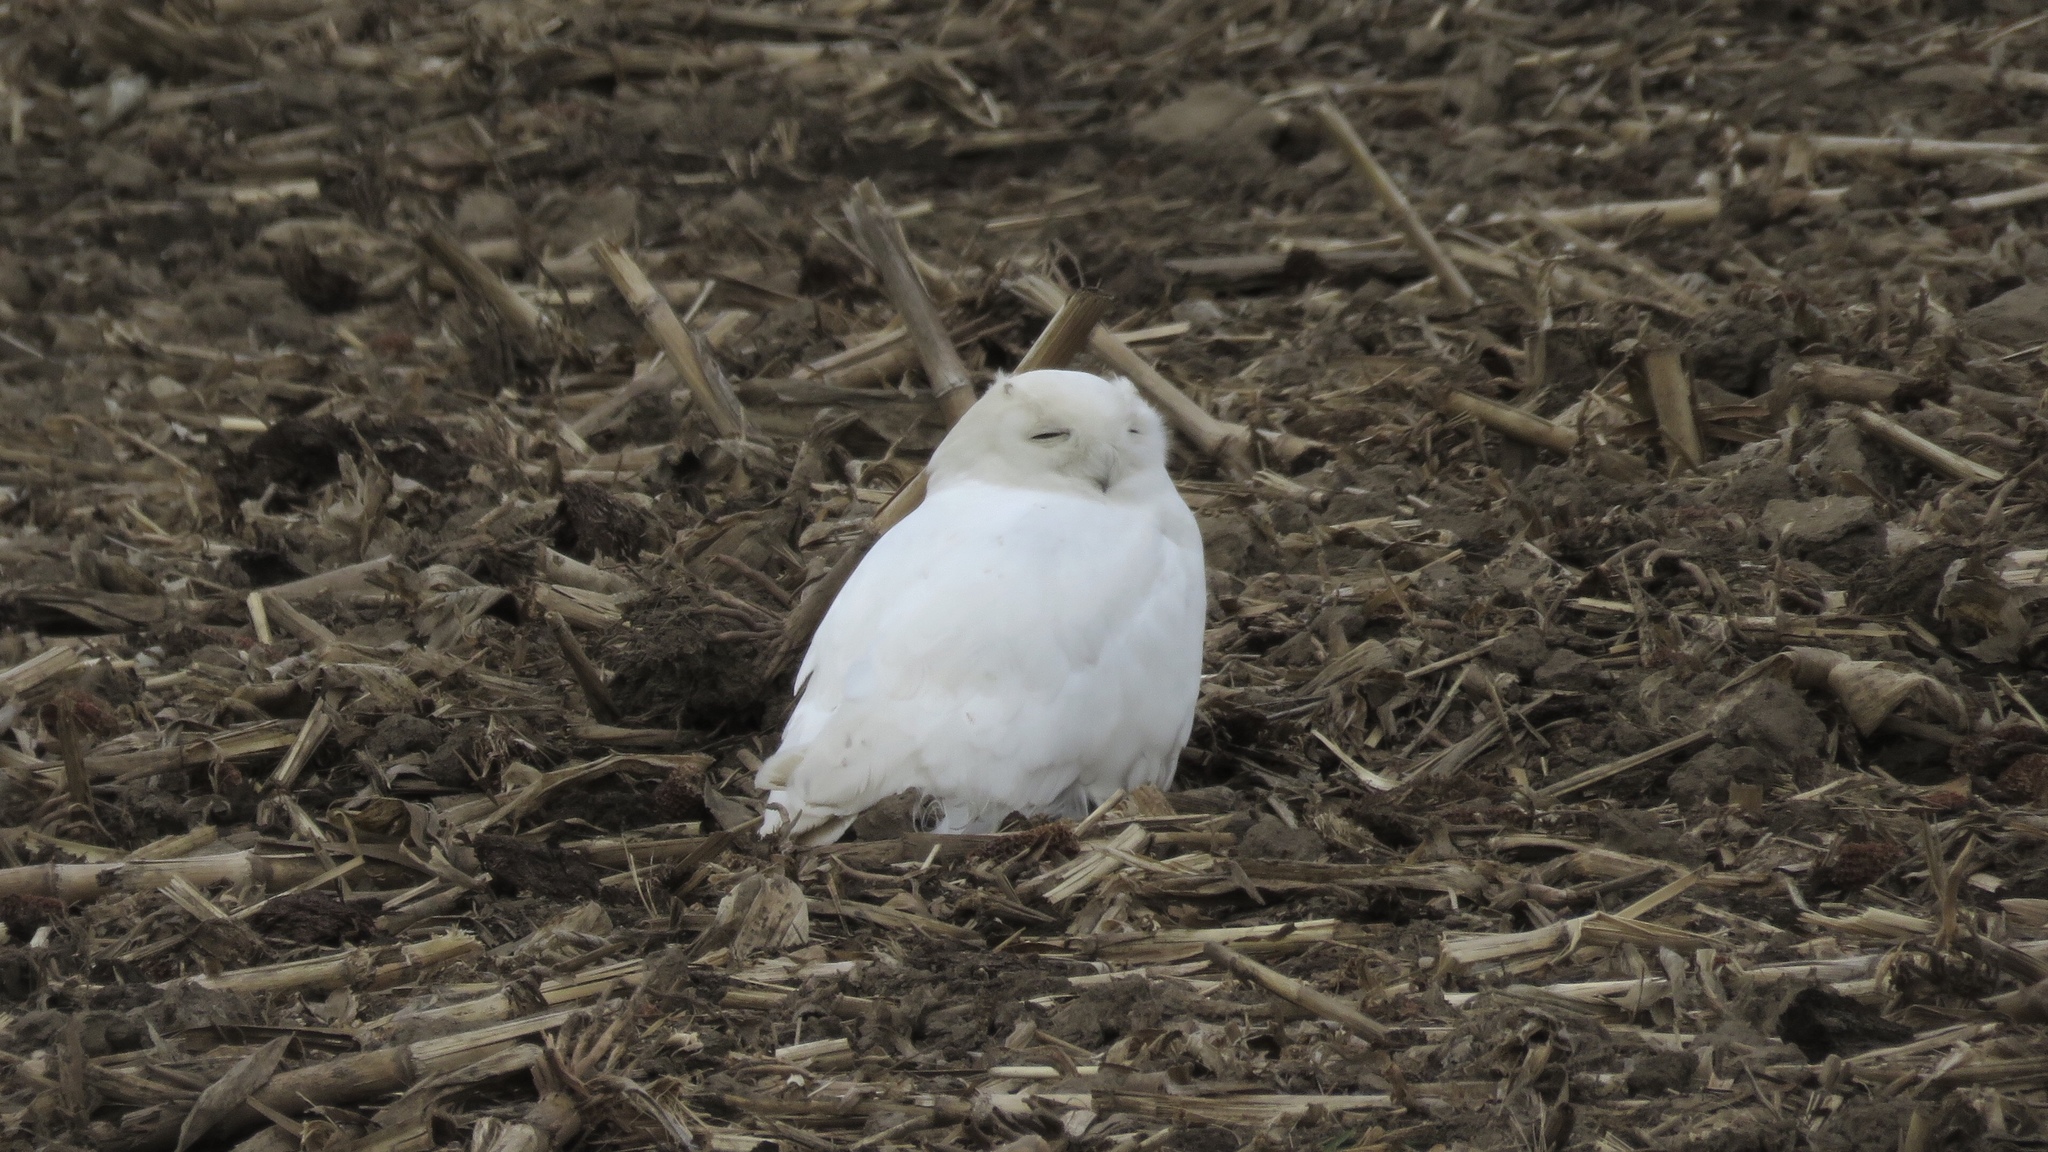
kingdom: Animalia
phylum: Chordata
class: Aves
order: Strigiformes
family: Strigidae
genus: Bubo
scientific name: Bubo scandiacus
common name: Snowy owl
